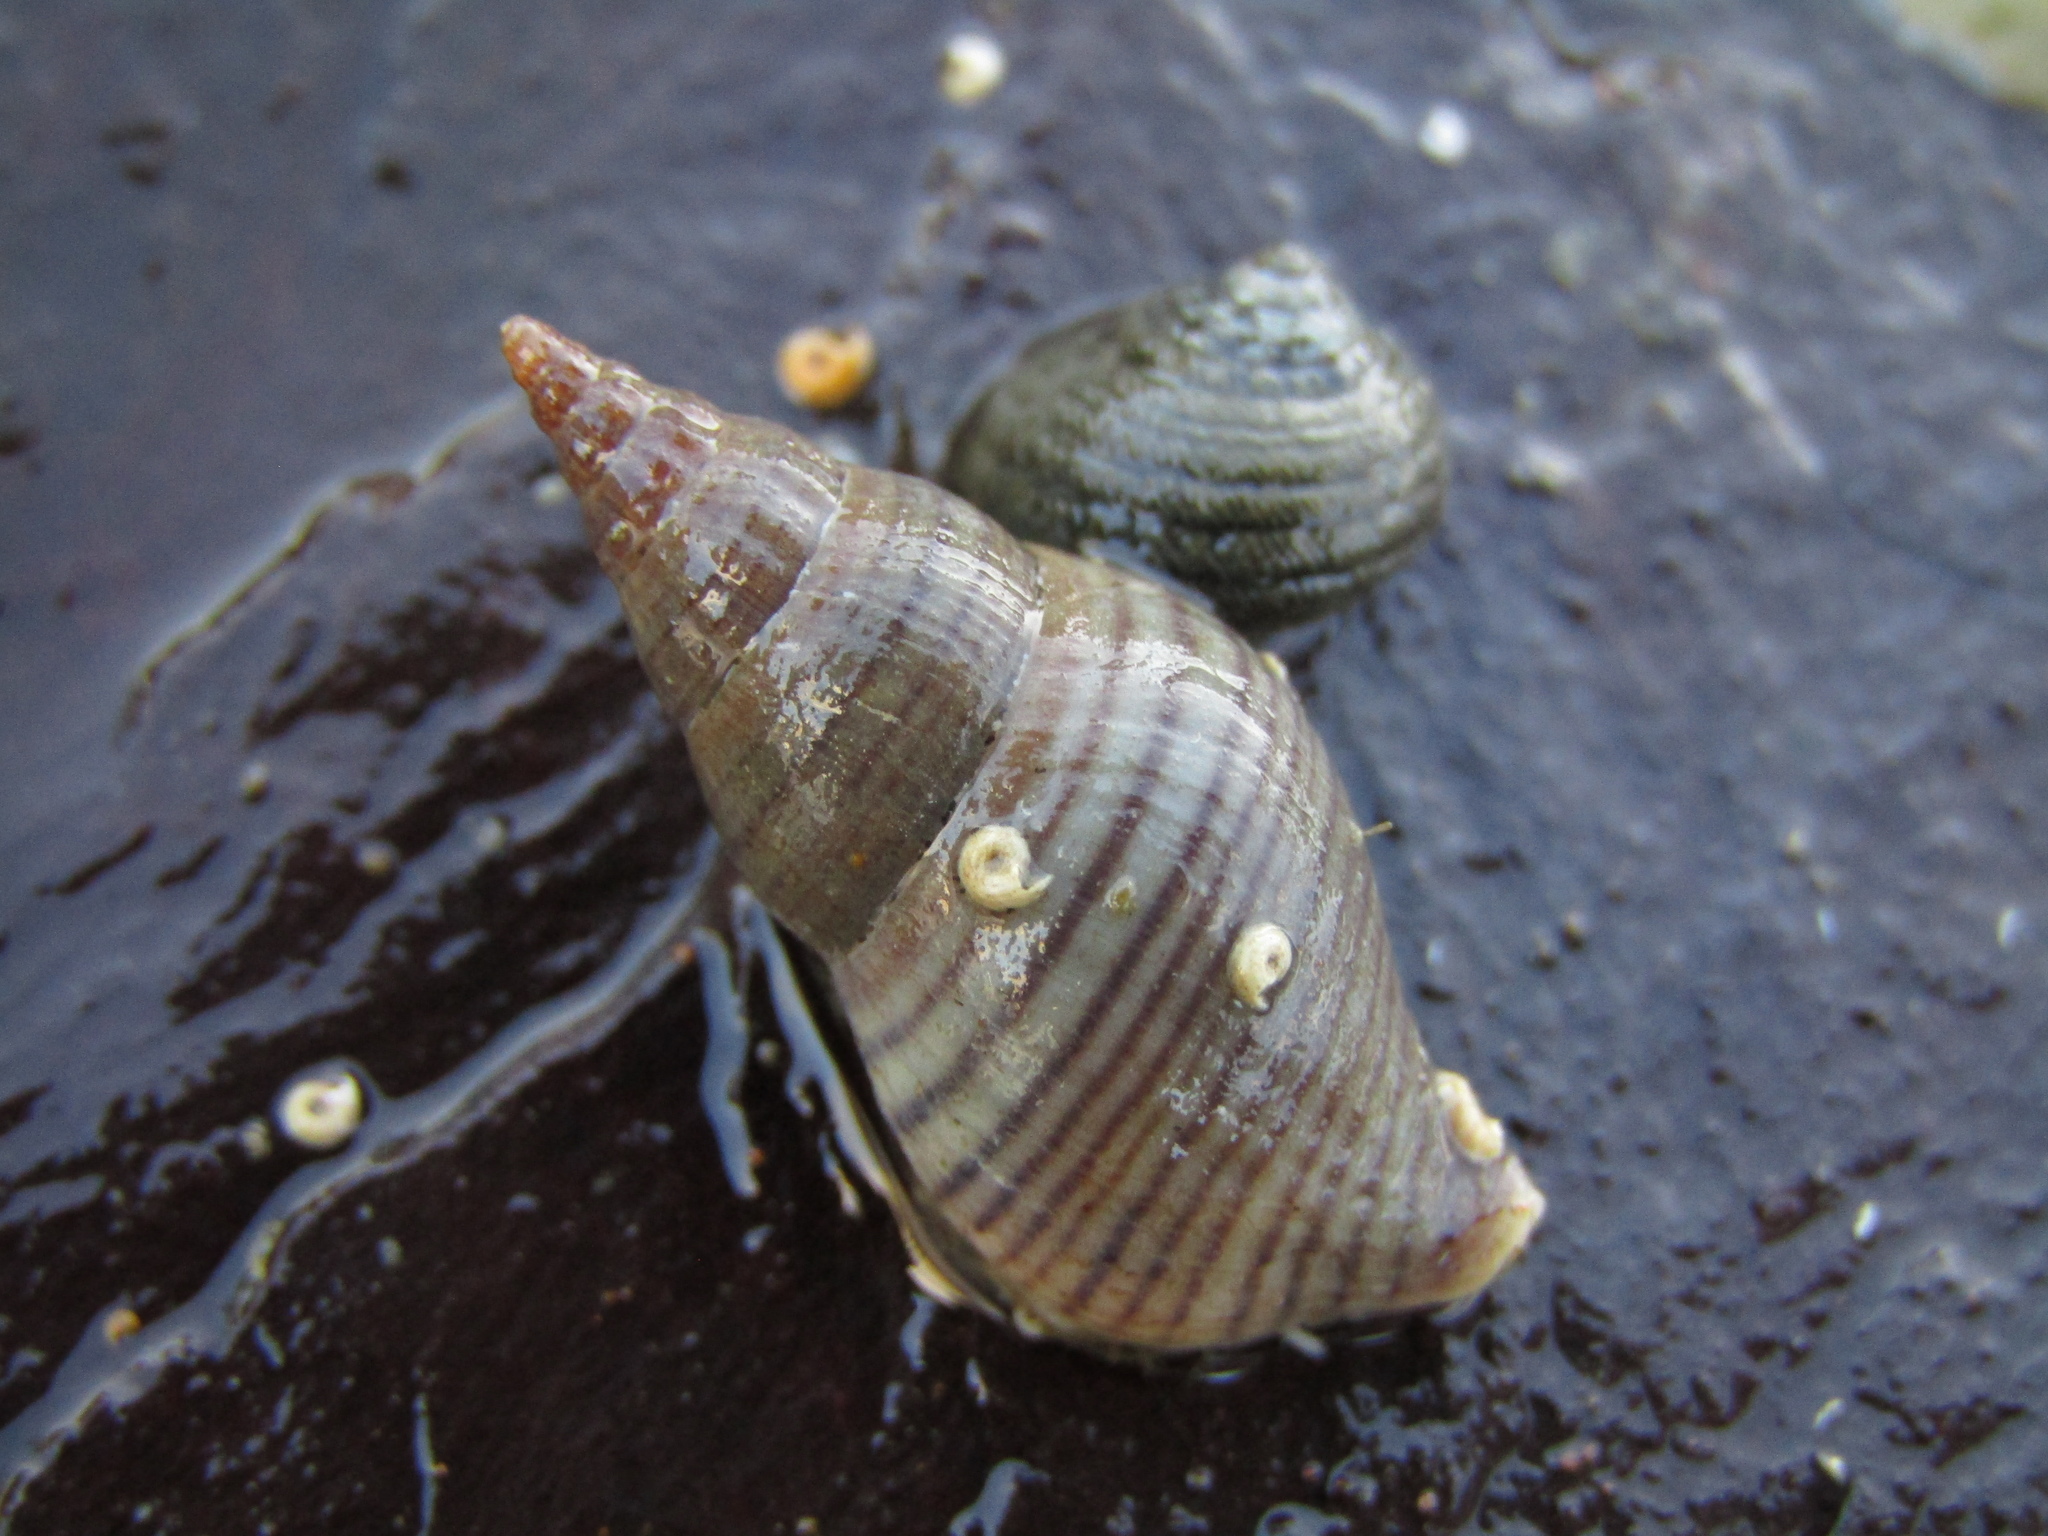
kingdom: Animalia
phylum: Mollusca
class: Gastropoda
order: Neogastropoda
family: Tudiclidae
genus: Buccinulum
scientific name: Buccinulum littorinoides
